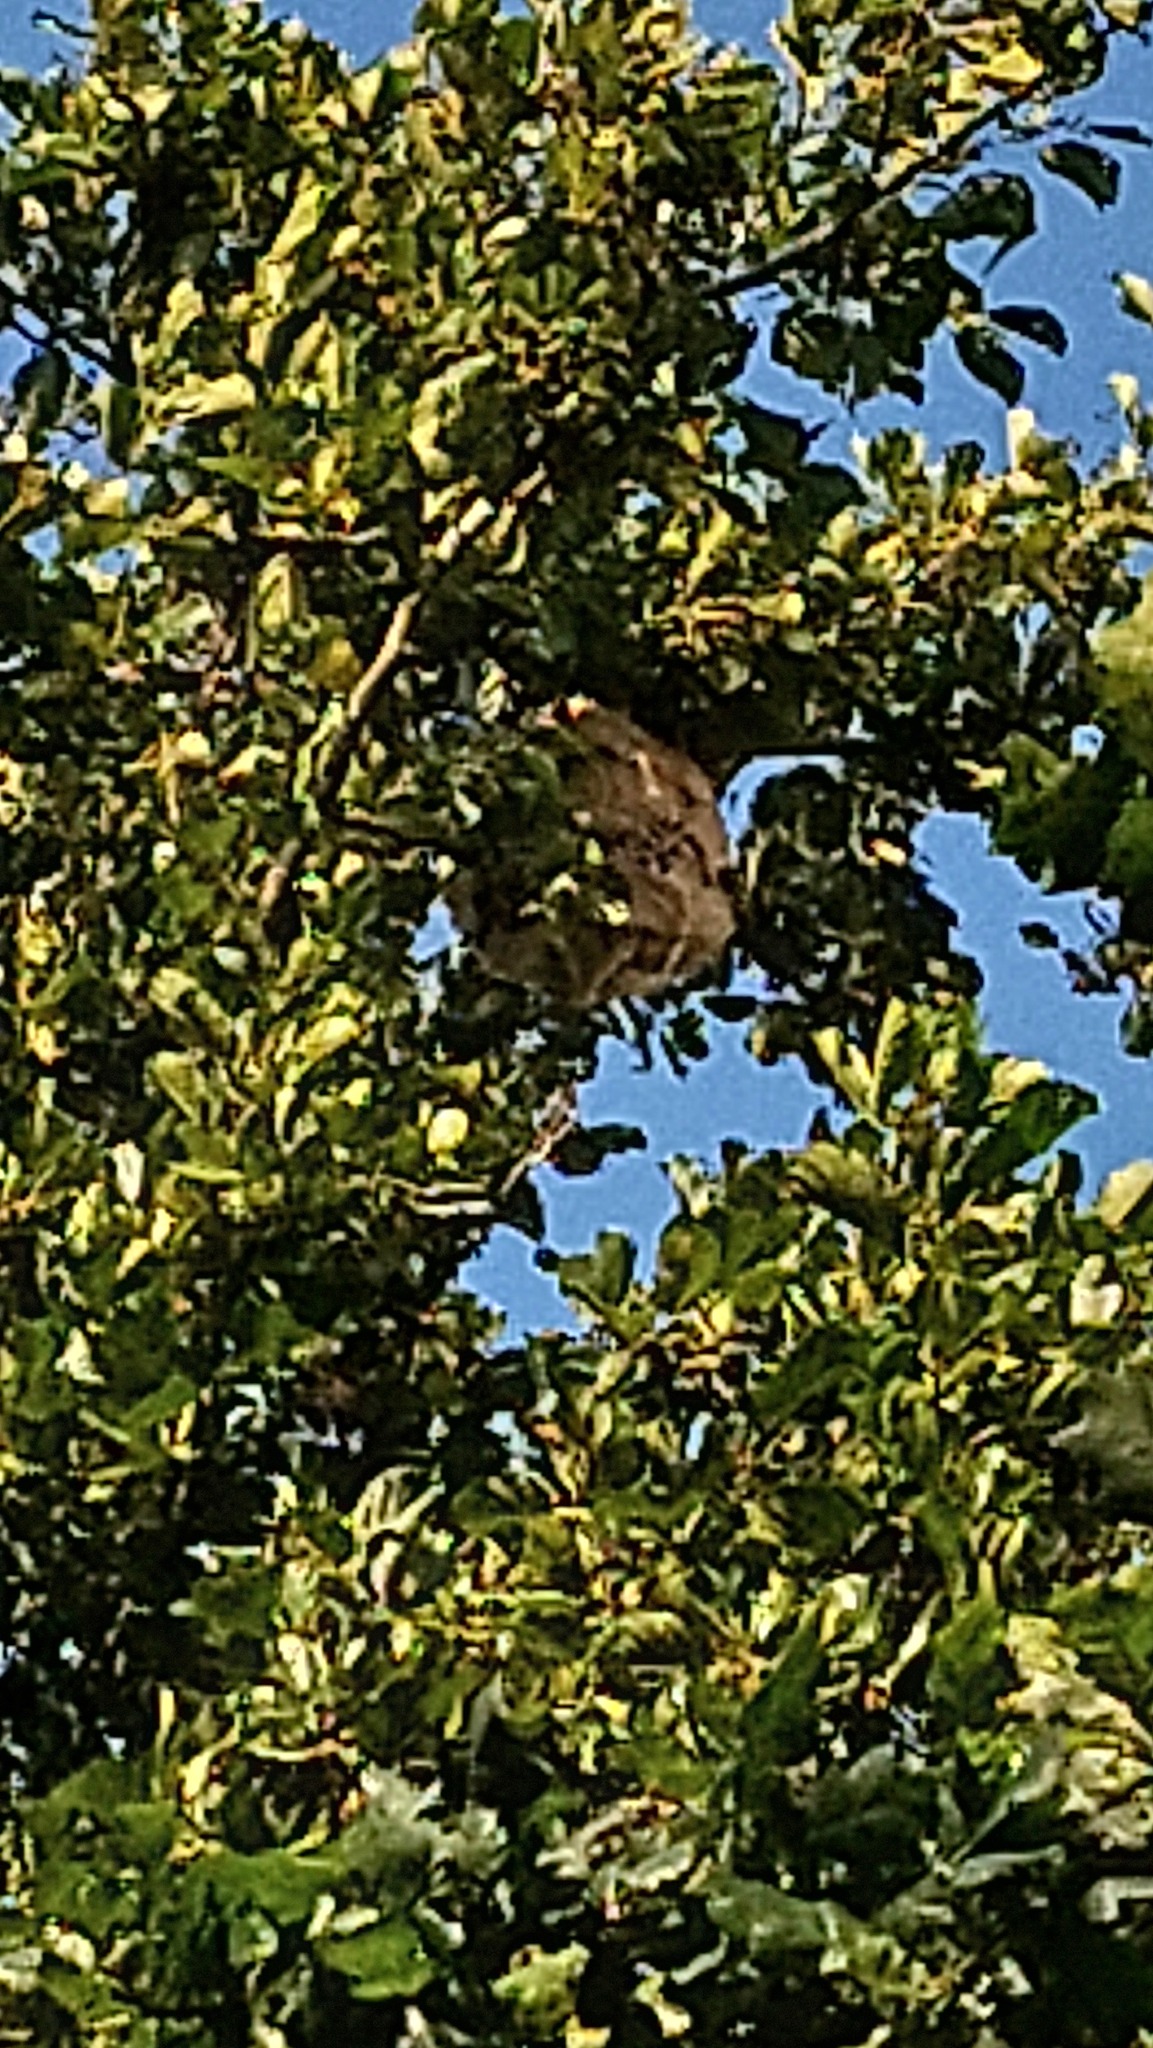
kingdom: Animalia
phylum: Arthropoda
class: Insecta
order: Hymenoptera
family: Vespidae
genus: Vespa
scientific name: Vespa velutina
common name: Asian hornet
